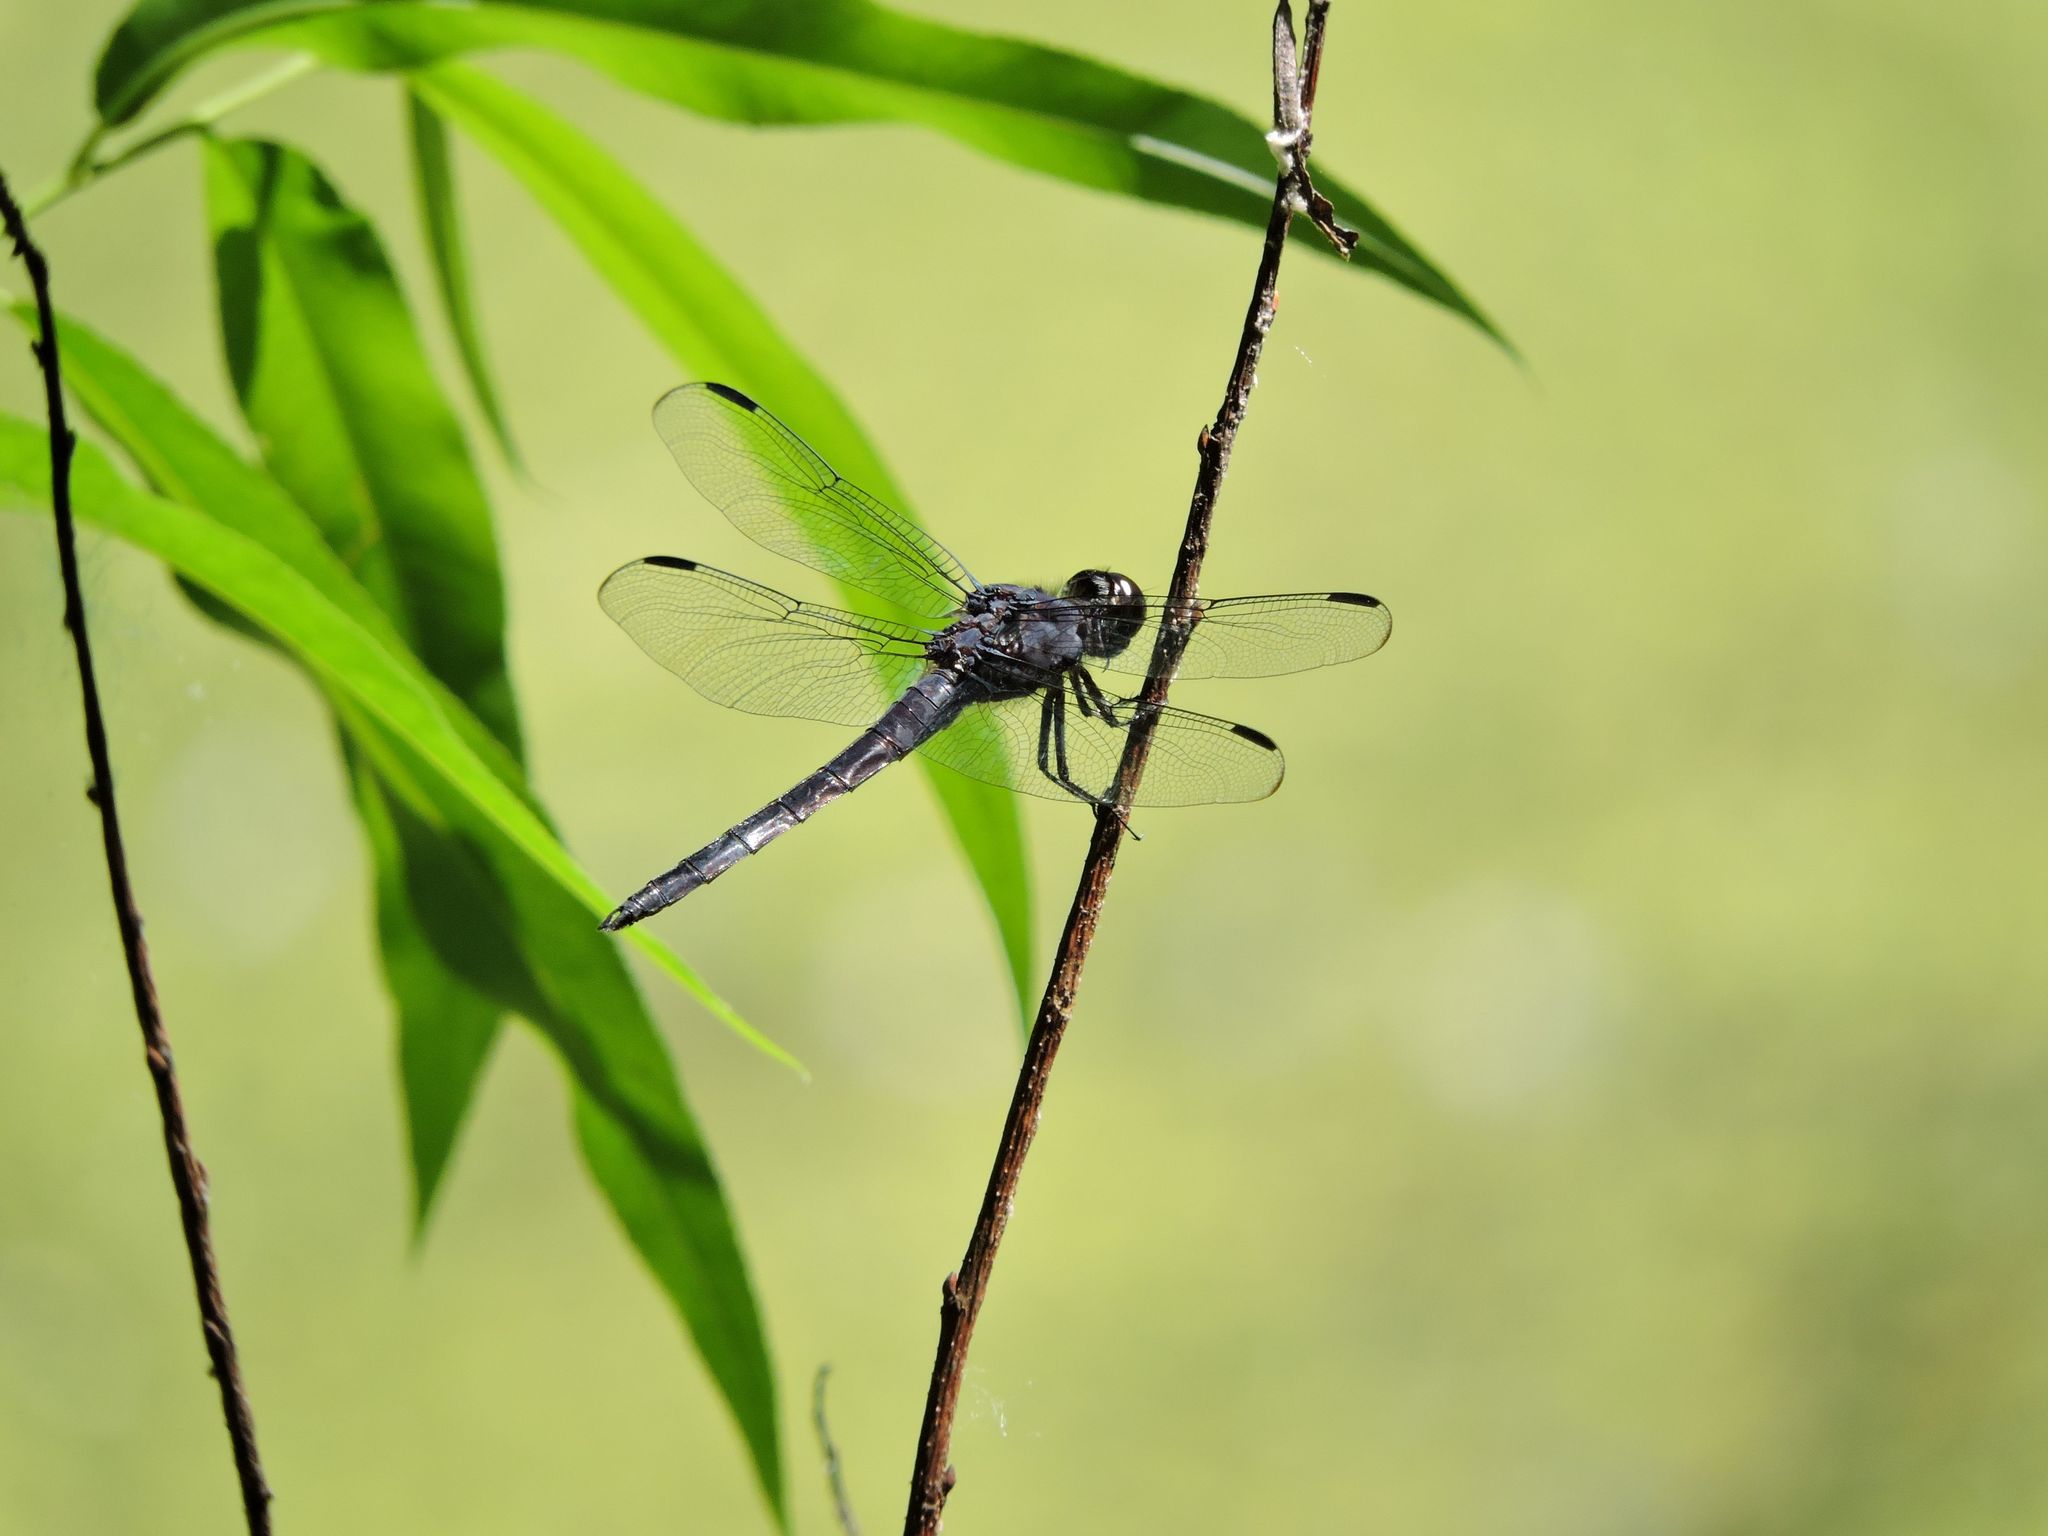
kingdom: Animalia
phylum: Arthropoda
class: Insecta
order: Odonata
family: Libellulidae
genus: Libellula
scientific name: Libellula incesta
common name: Slaty skimmer
